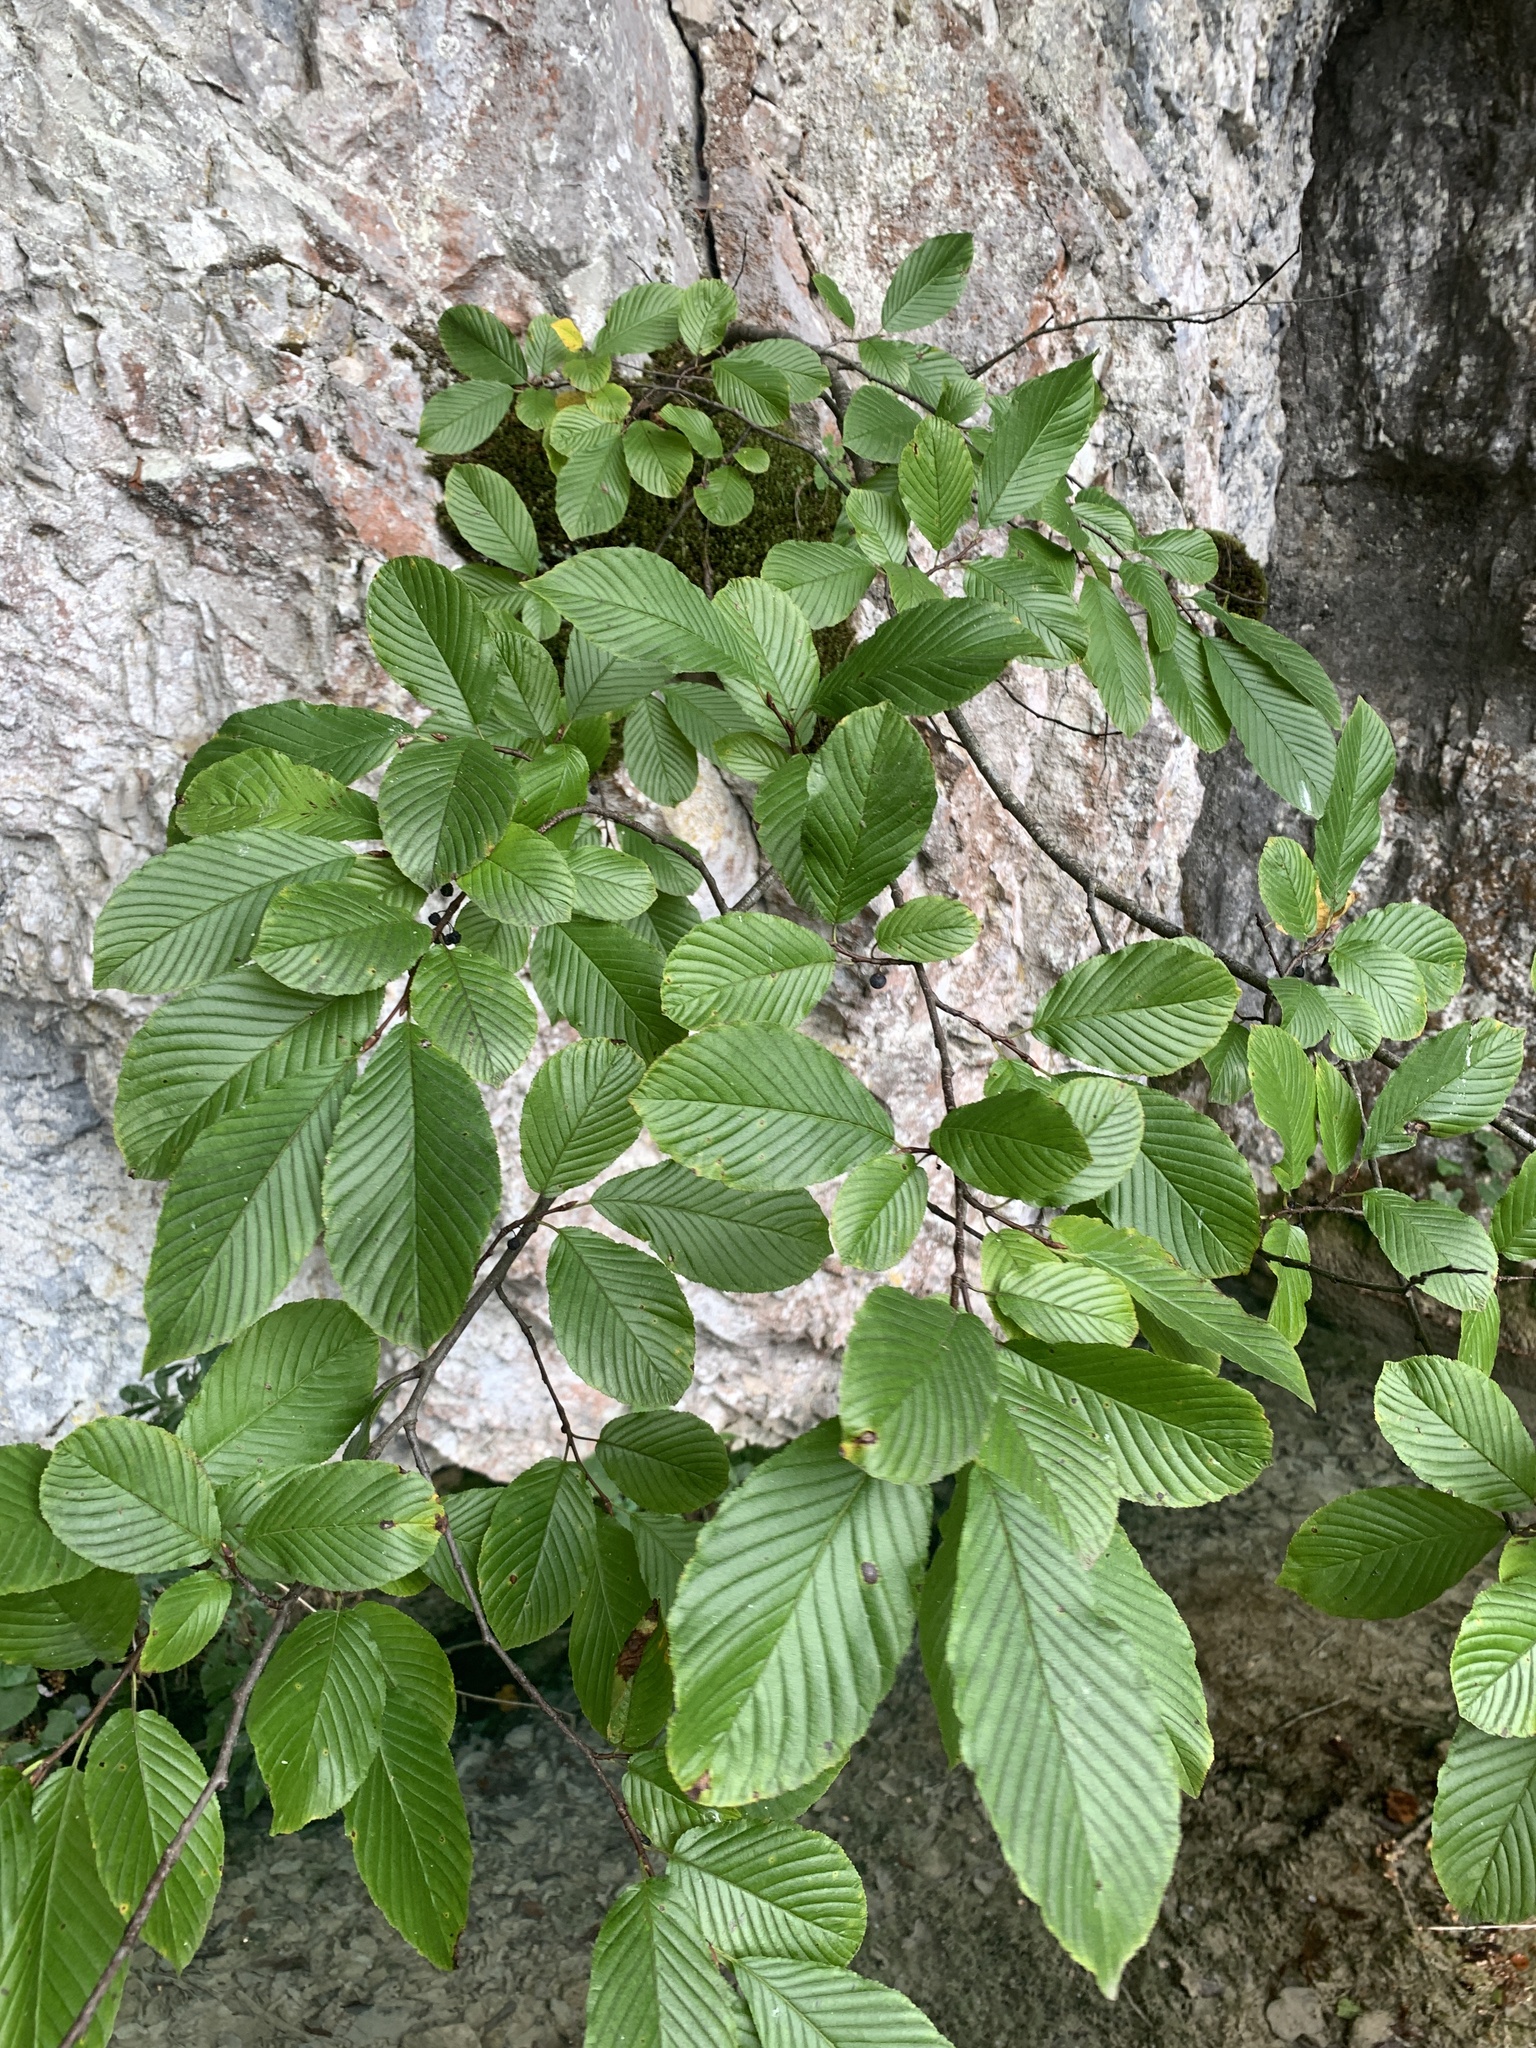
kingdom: Plantae
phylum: Tracheophyta
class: Magnoliopsida
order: Rosales
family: Rhamnaceae
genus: Atadinus
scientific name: Atadinus fallax
